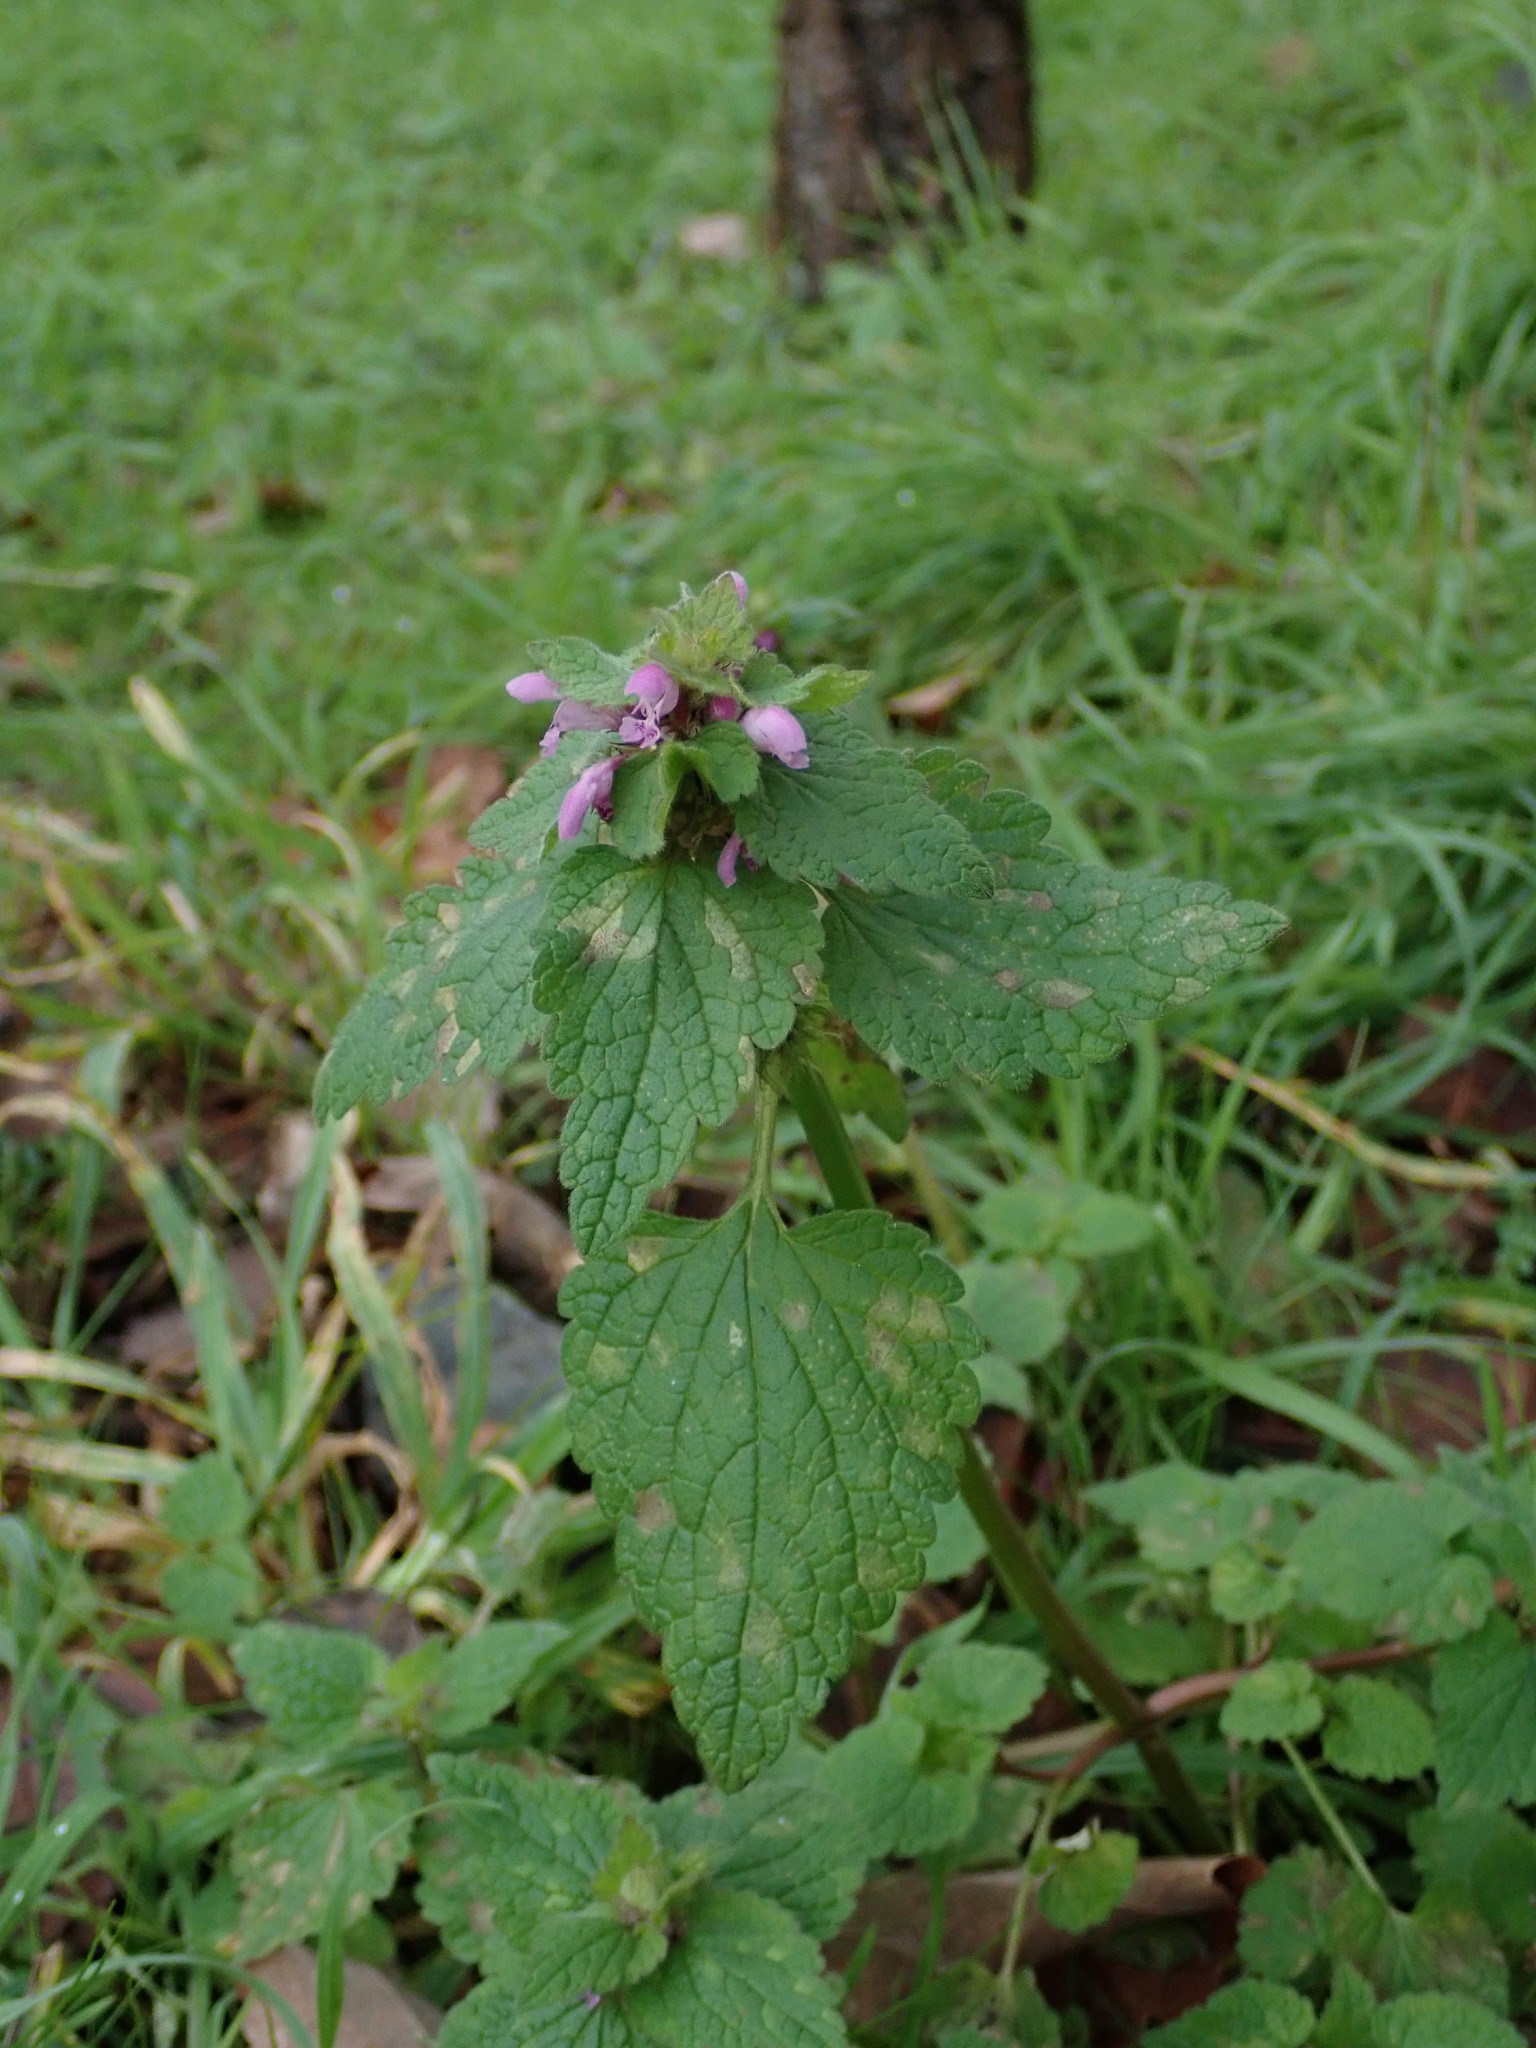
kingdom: Plantae
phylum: Tracheophyta
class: Magnoliopsida
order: Lamiales
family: Lamiaceae
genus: Lamium
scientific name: Lamium purpureum
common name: Red dead-nettle
